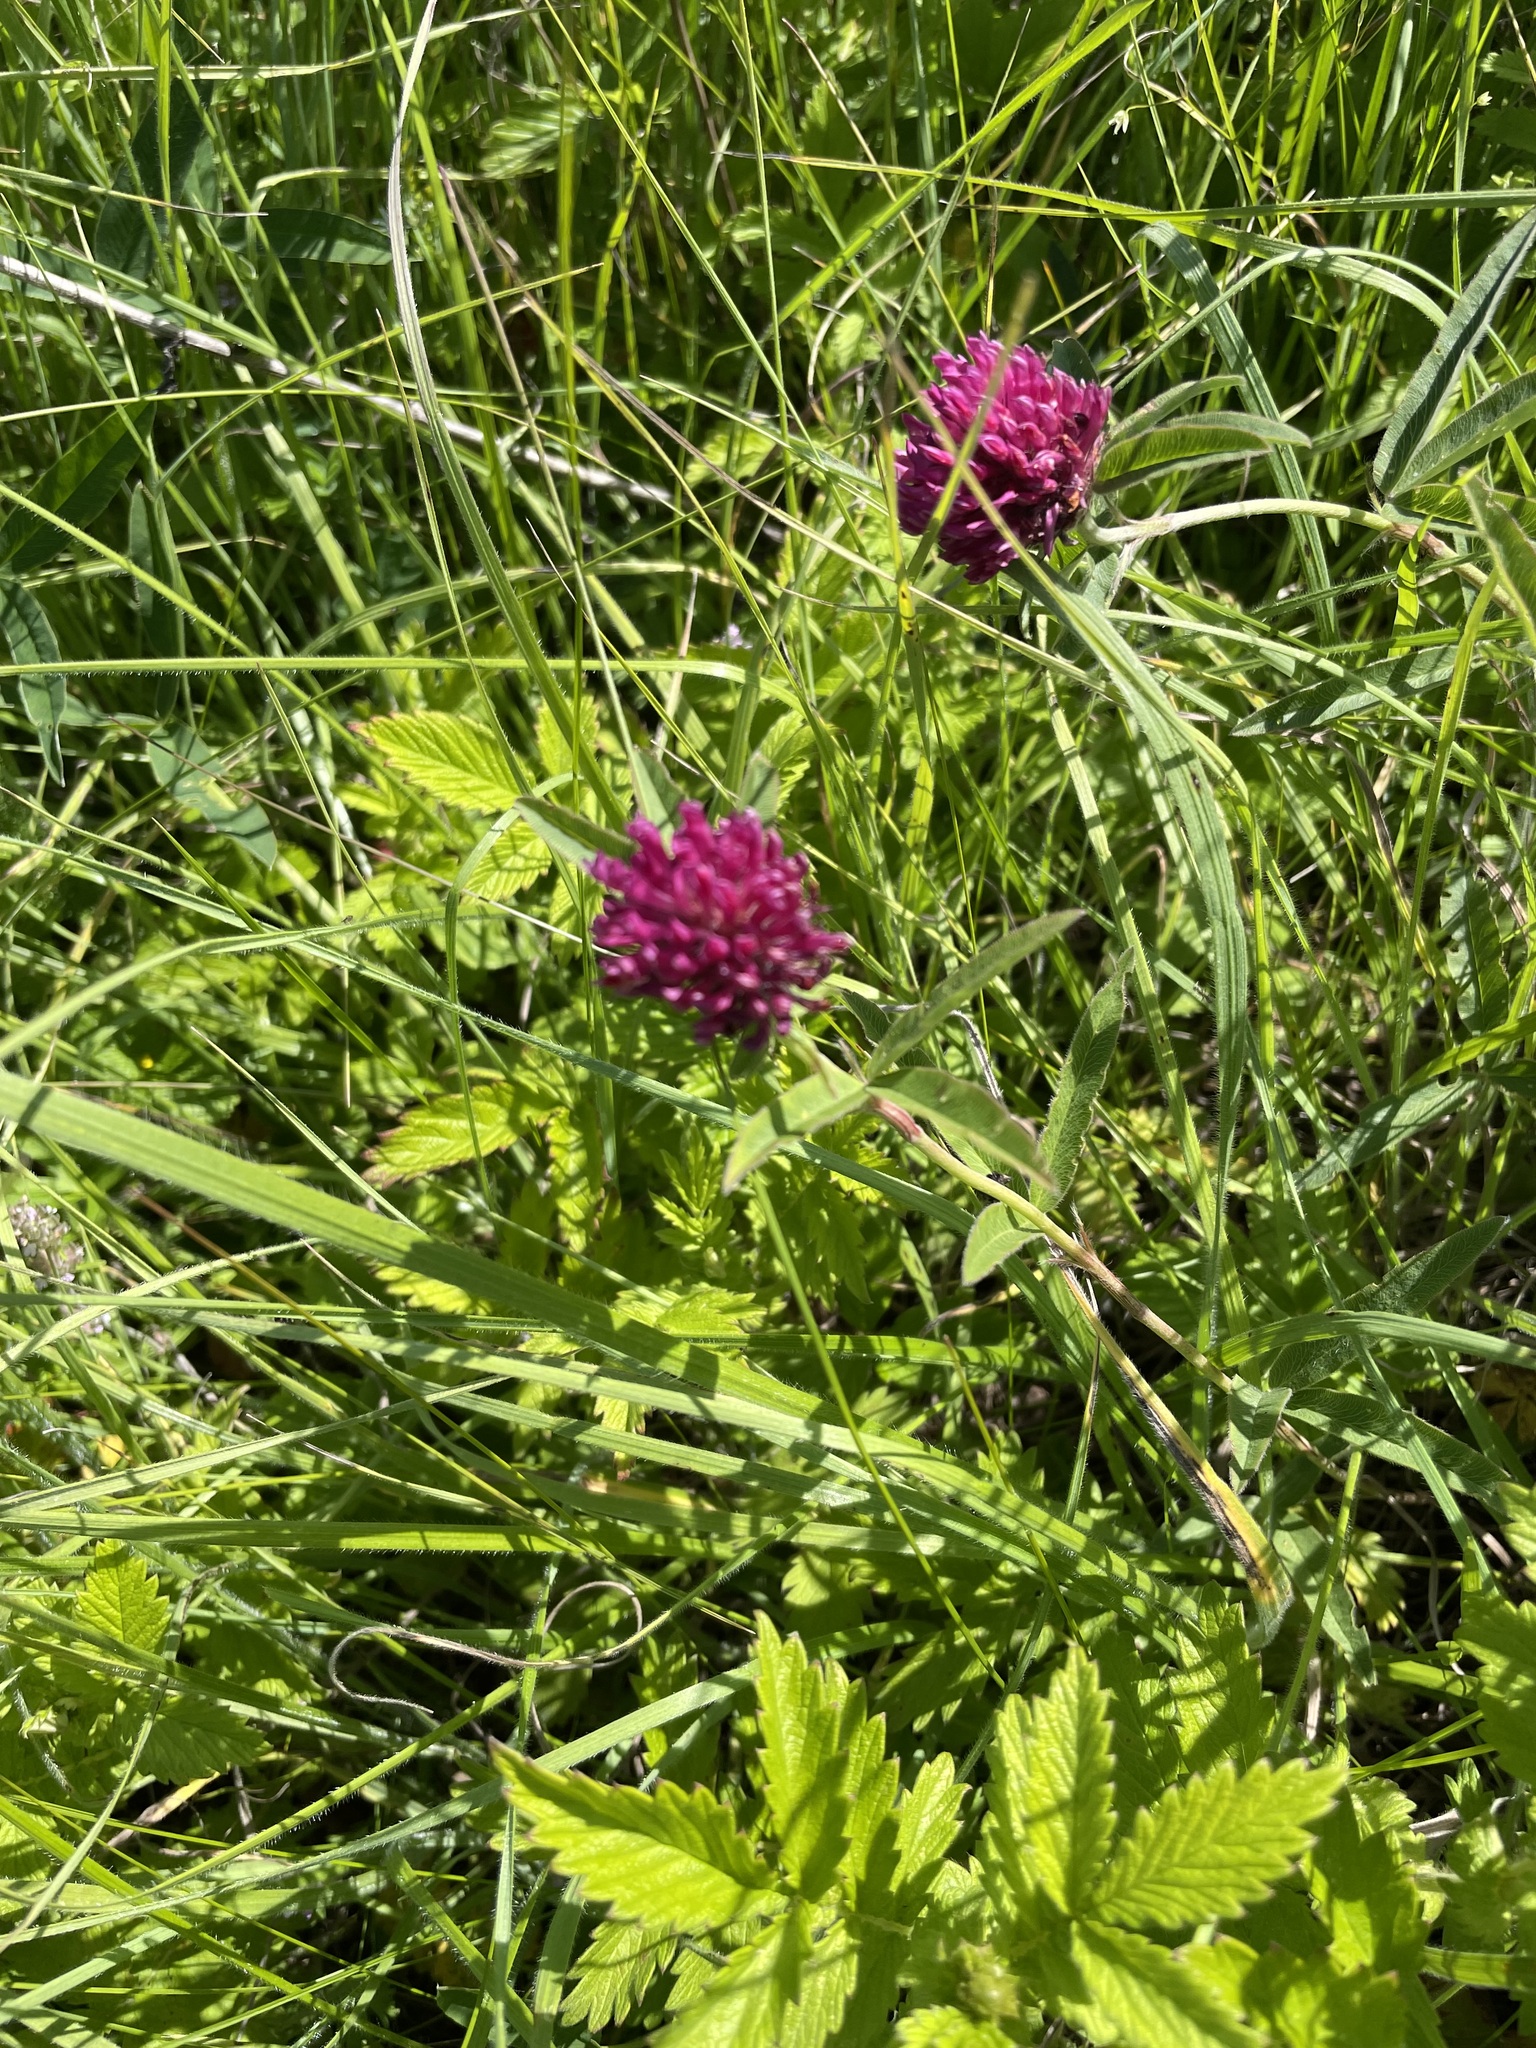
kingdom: Plantae
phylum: Tracheophyta
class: Magnoliopsida
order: Fabales
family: Fabaceae
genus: Trifolium
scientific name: Trifolium alpestre
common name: Owl-head clover
